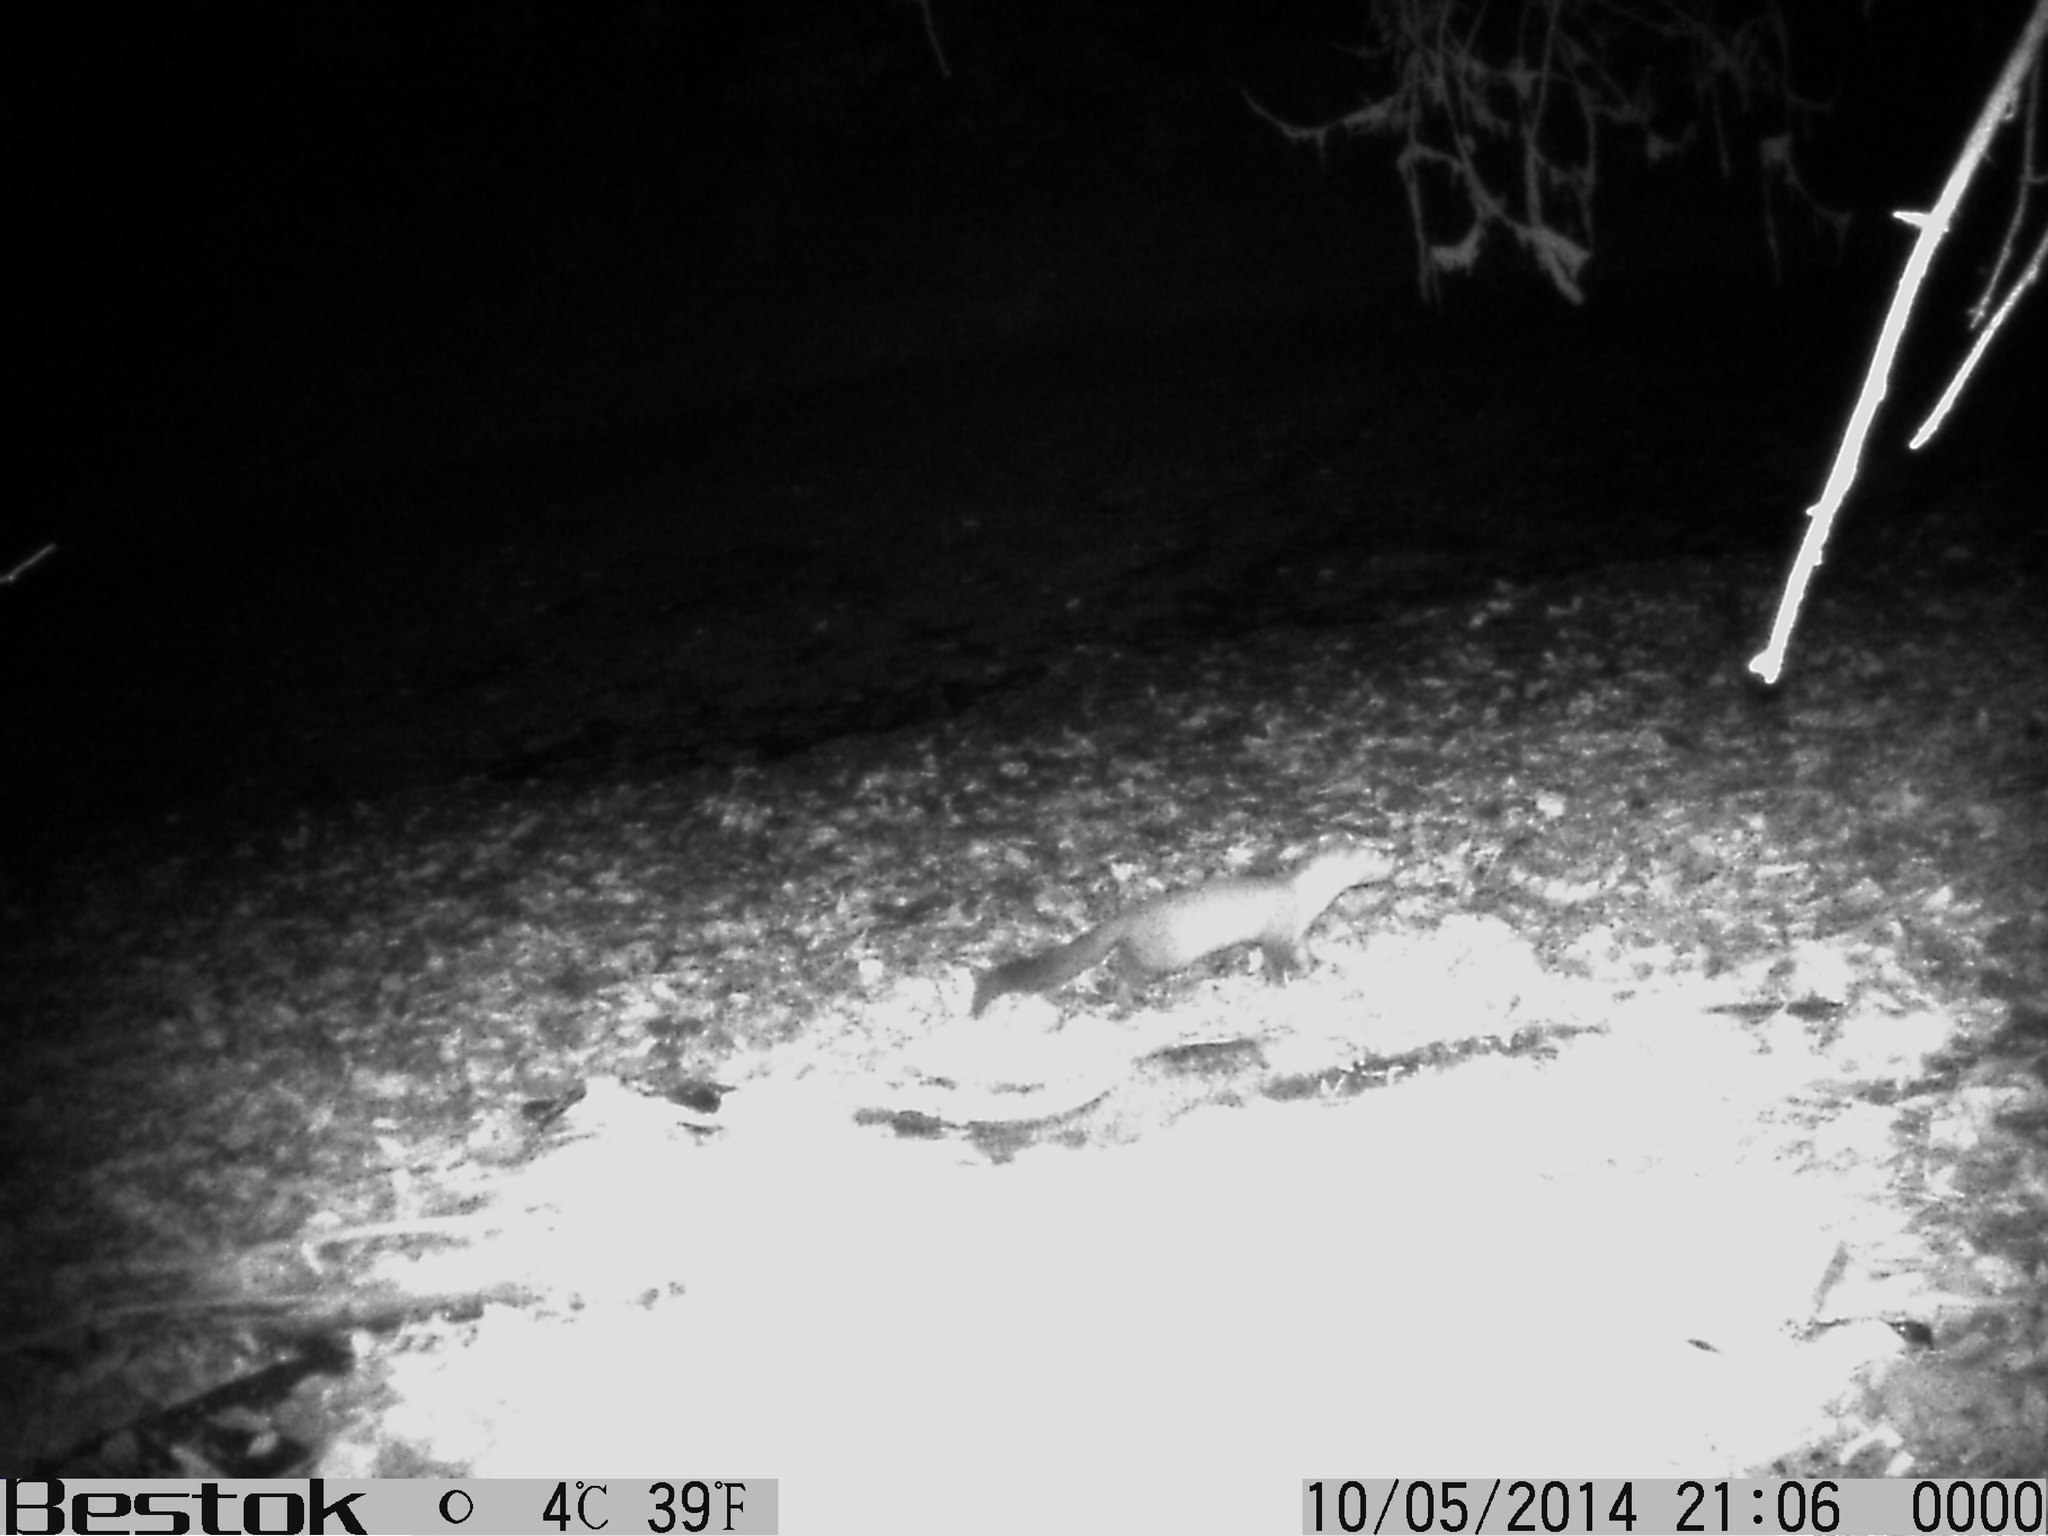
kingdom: Animalia
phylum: Chordata
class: Mammalia
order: Carnivora
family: Mustelidae
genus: Martes
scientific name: Martes foina
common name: Beech marten
